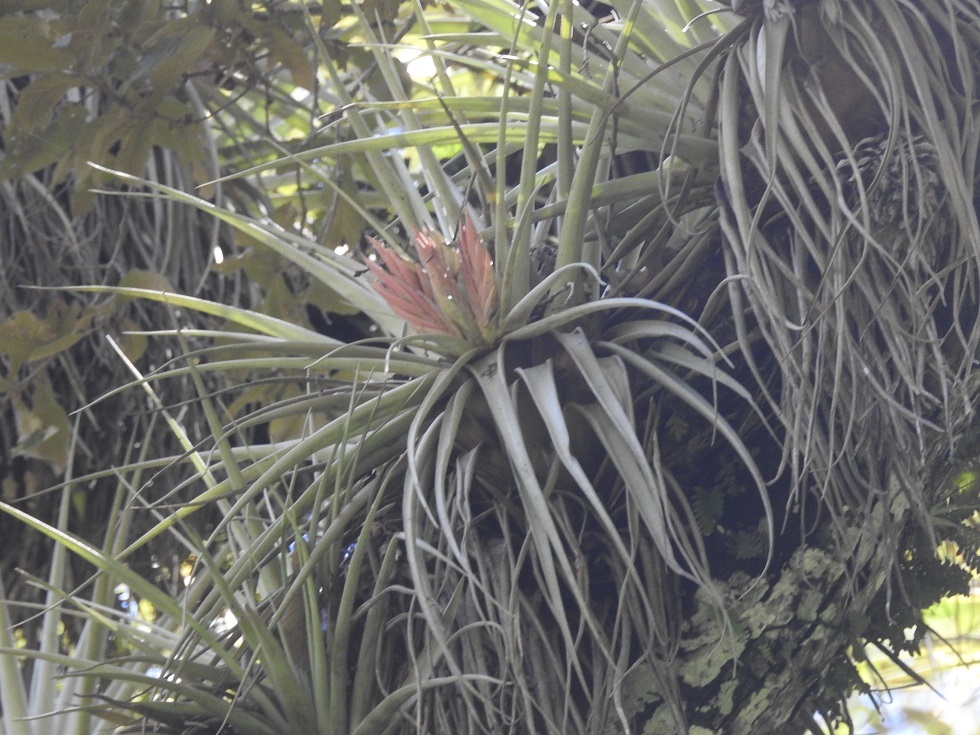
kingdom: Plantae
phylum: Tracheophyta
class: Liliopsida
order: Poales
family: Bromeliaceae
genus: Tillandsia
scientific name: Tillandsia carlsoniae
